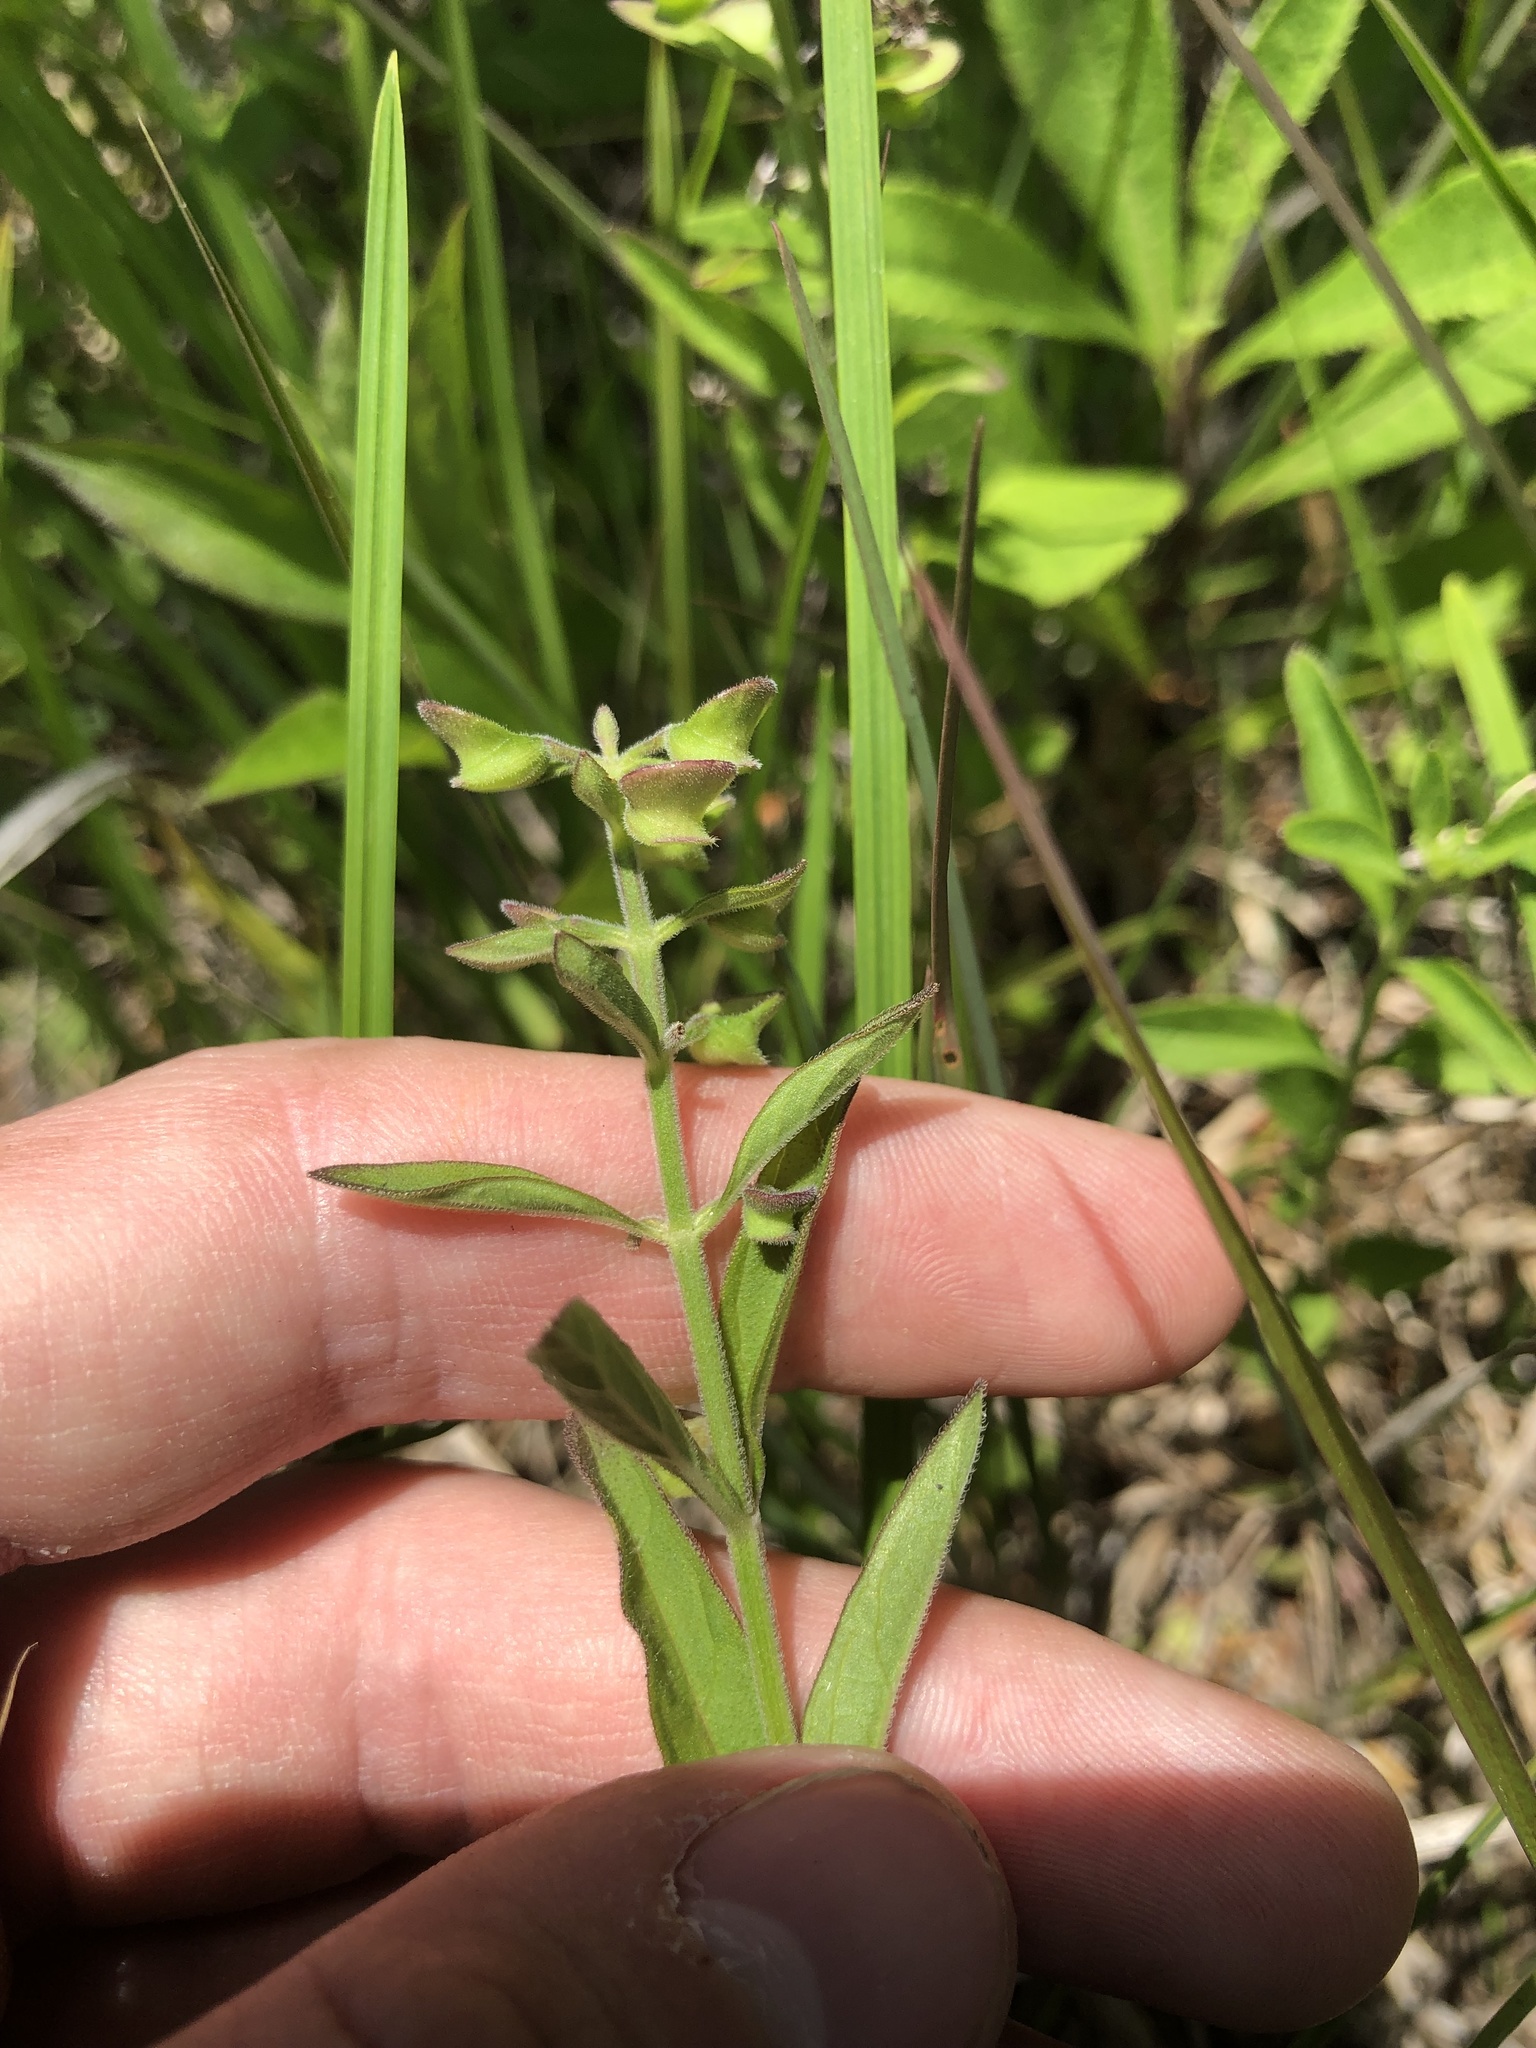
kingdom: Plantae
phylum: Tracheophyta
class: Magnoliopsida
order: Lamiales
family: Lamiaceae
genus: Scutellaria
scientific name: Scutellaria integrifolia
